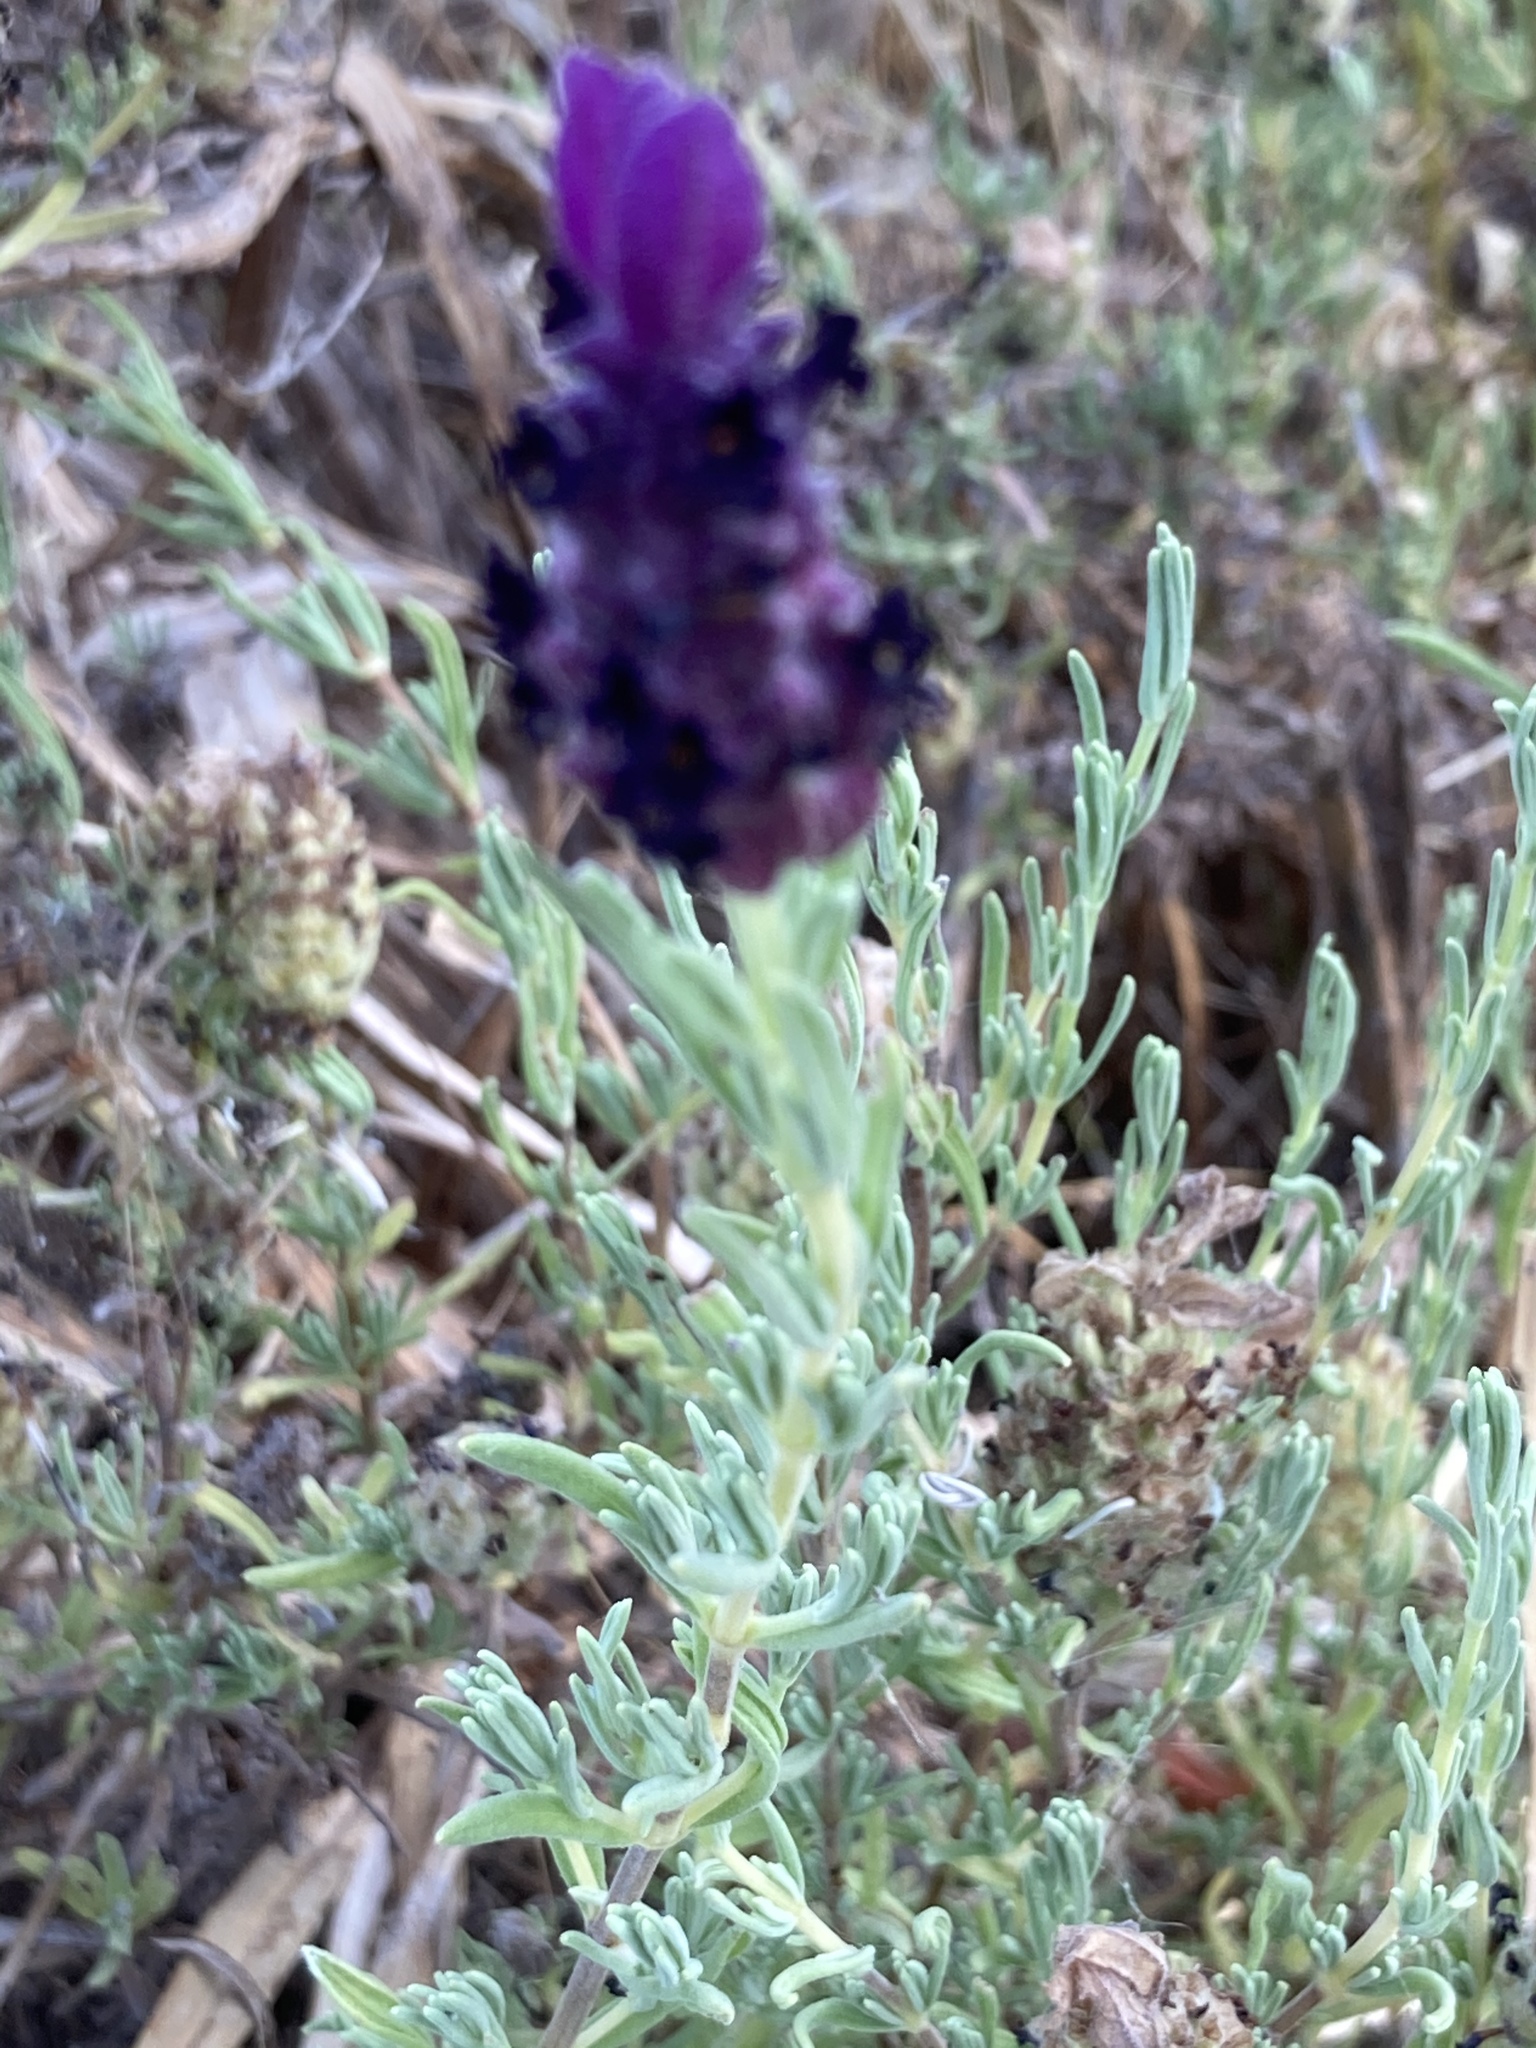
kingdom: Plantae
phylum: Tracheophyta
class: Magnoliopsida
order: Lamiales
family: Lamiaceae
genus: Lavandula
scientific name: Lavandula stoechas
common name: French lavender
